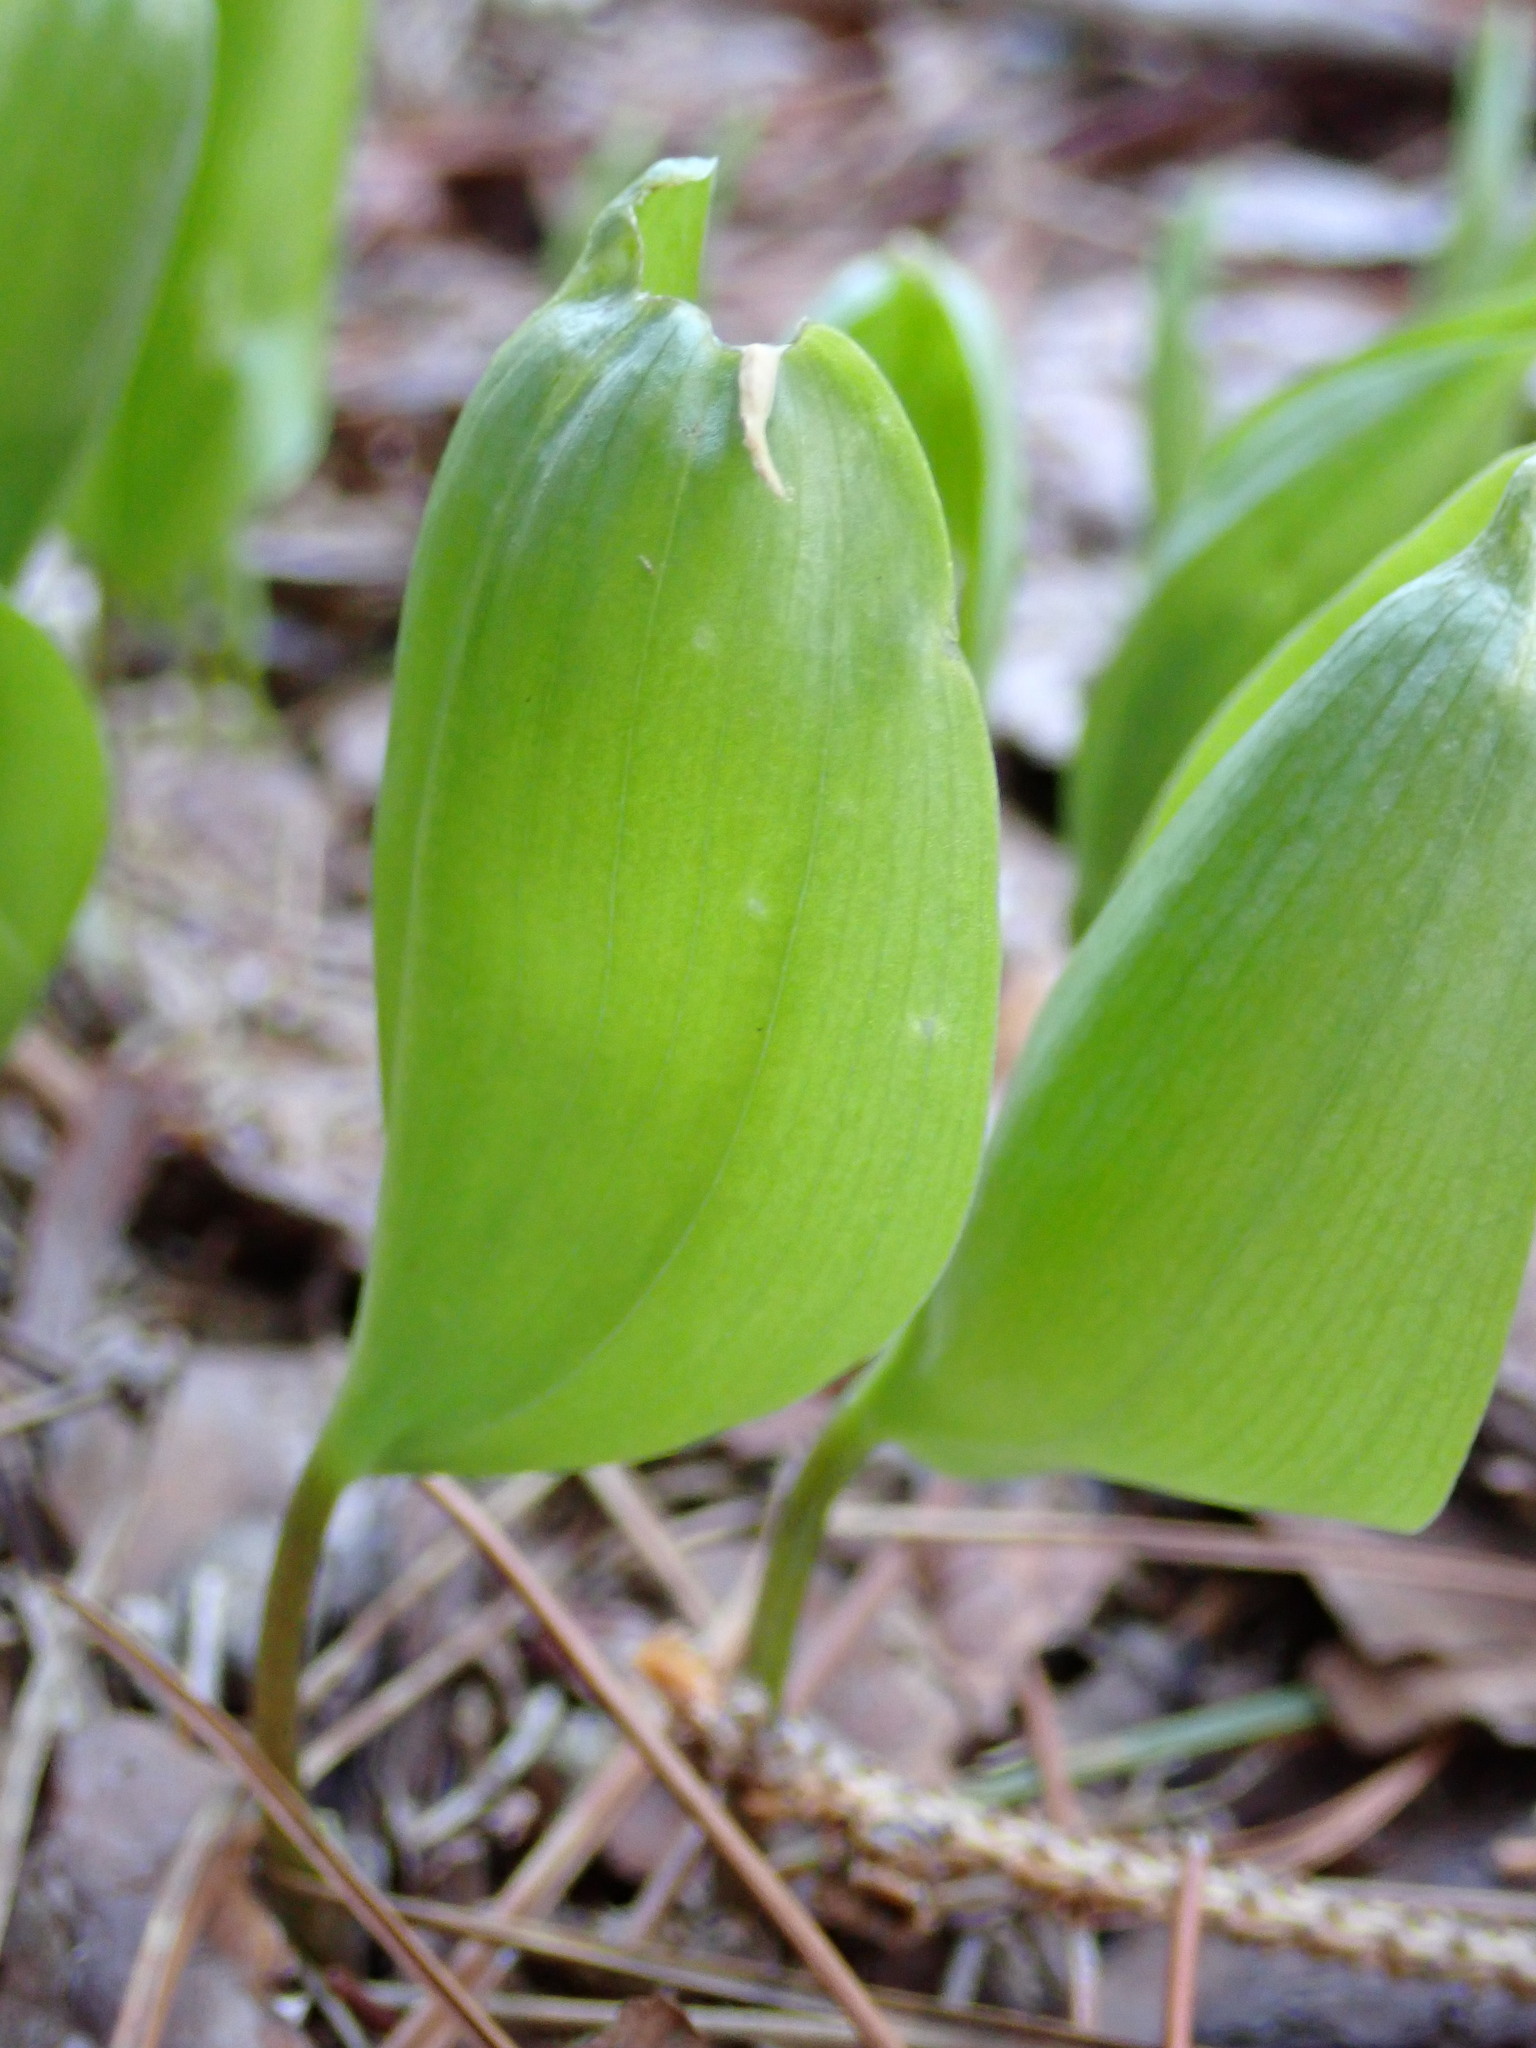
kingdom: Plantae
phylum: Tracheophyta
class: Liliopsida
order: Asparagales
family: Asparagaceae
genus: Maianthemum
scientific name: Maianthemum canadense
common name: False lily-of-the-valley
